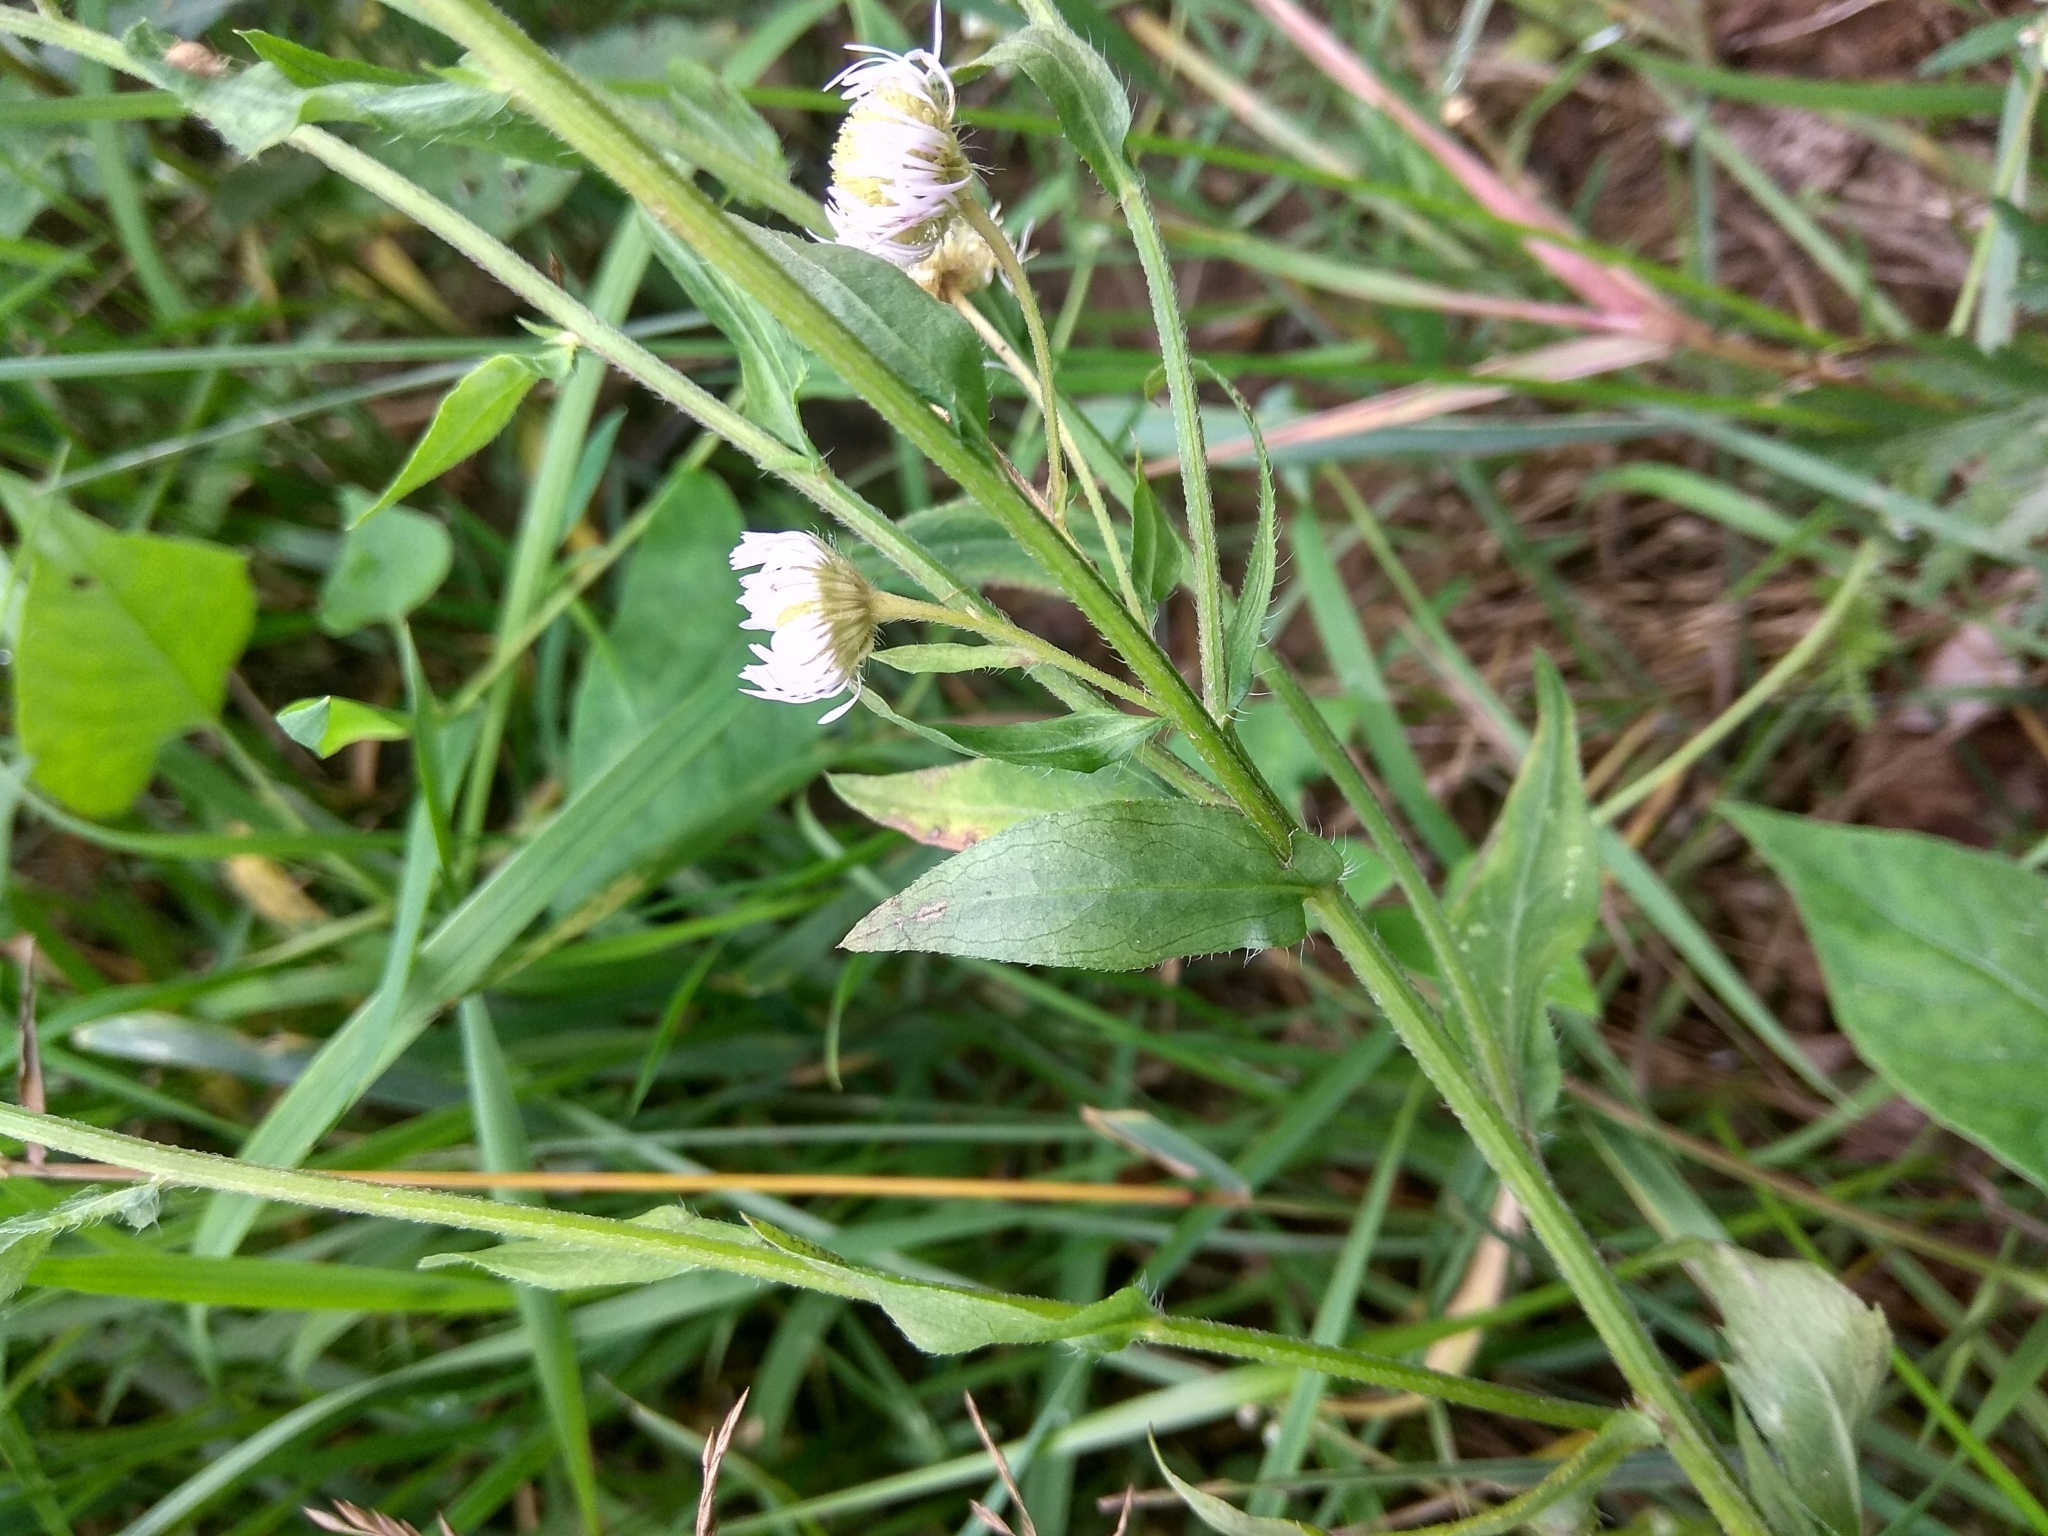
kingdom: Plantae
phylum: Tracheophyta
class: Magnoliopsida
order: Asterales
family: Asteraceae
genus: Erigeron
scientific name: Erigeron annuus
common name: Tall fleabane
